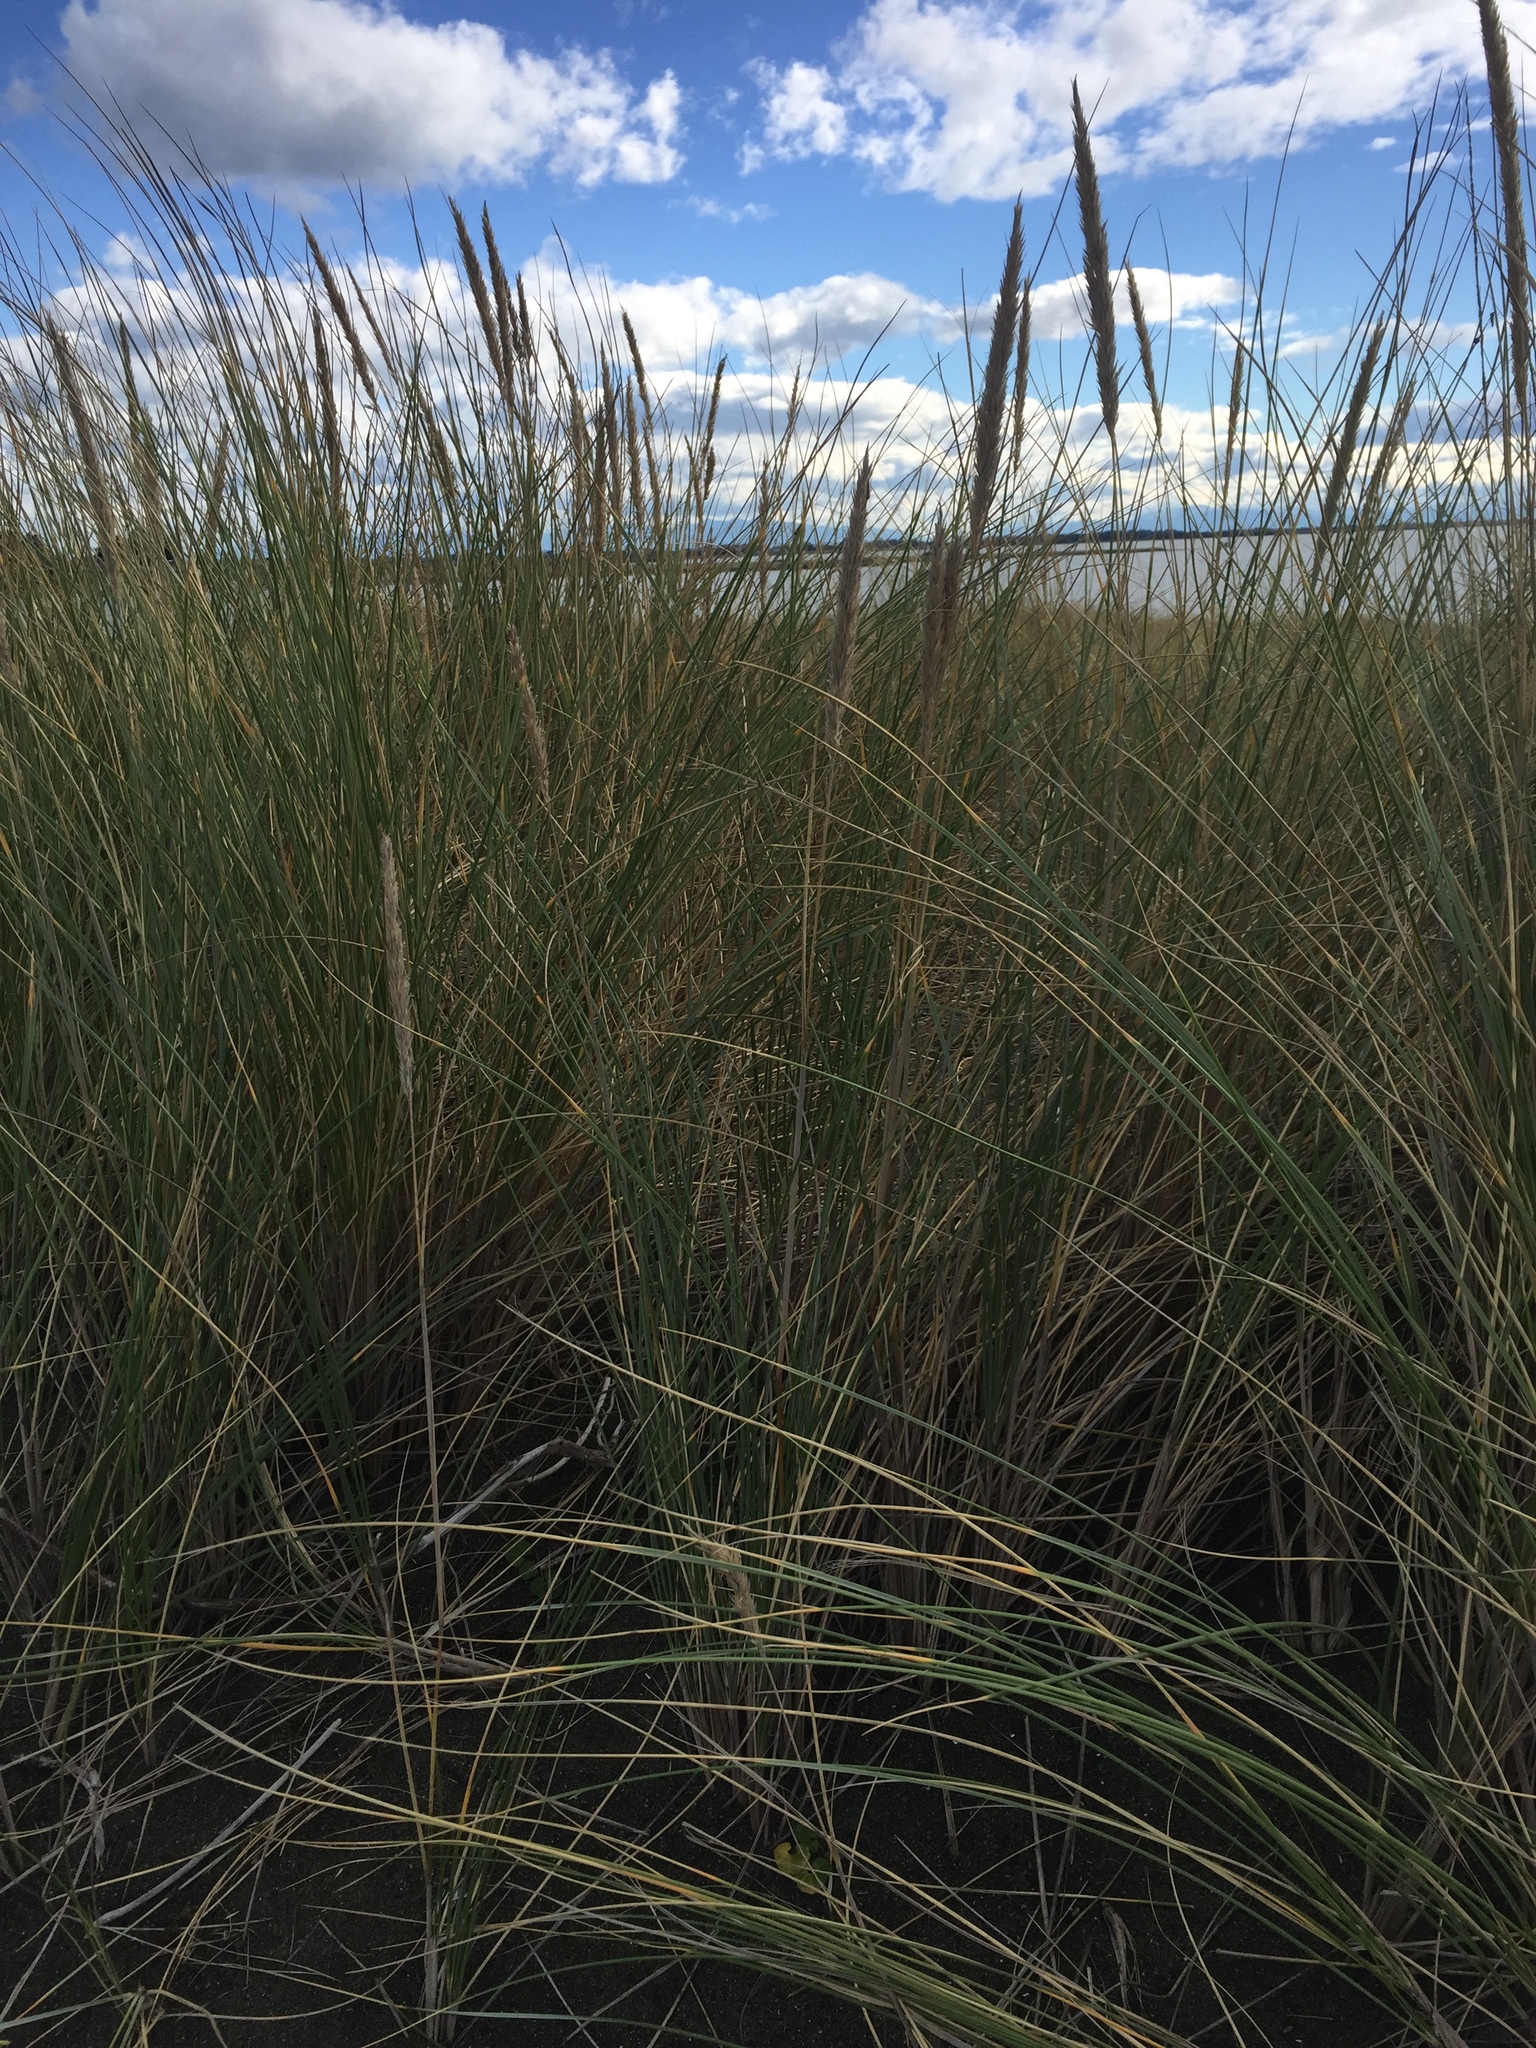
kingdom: Plantae
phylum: Tracheophyta
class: Liliopsida
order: Poales
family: Poaceae
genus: Calamagrostis
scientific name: Calamagrostis arenaria
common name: European beachgrass
